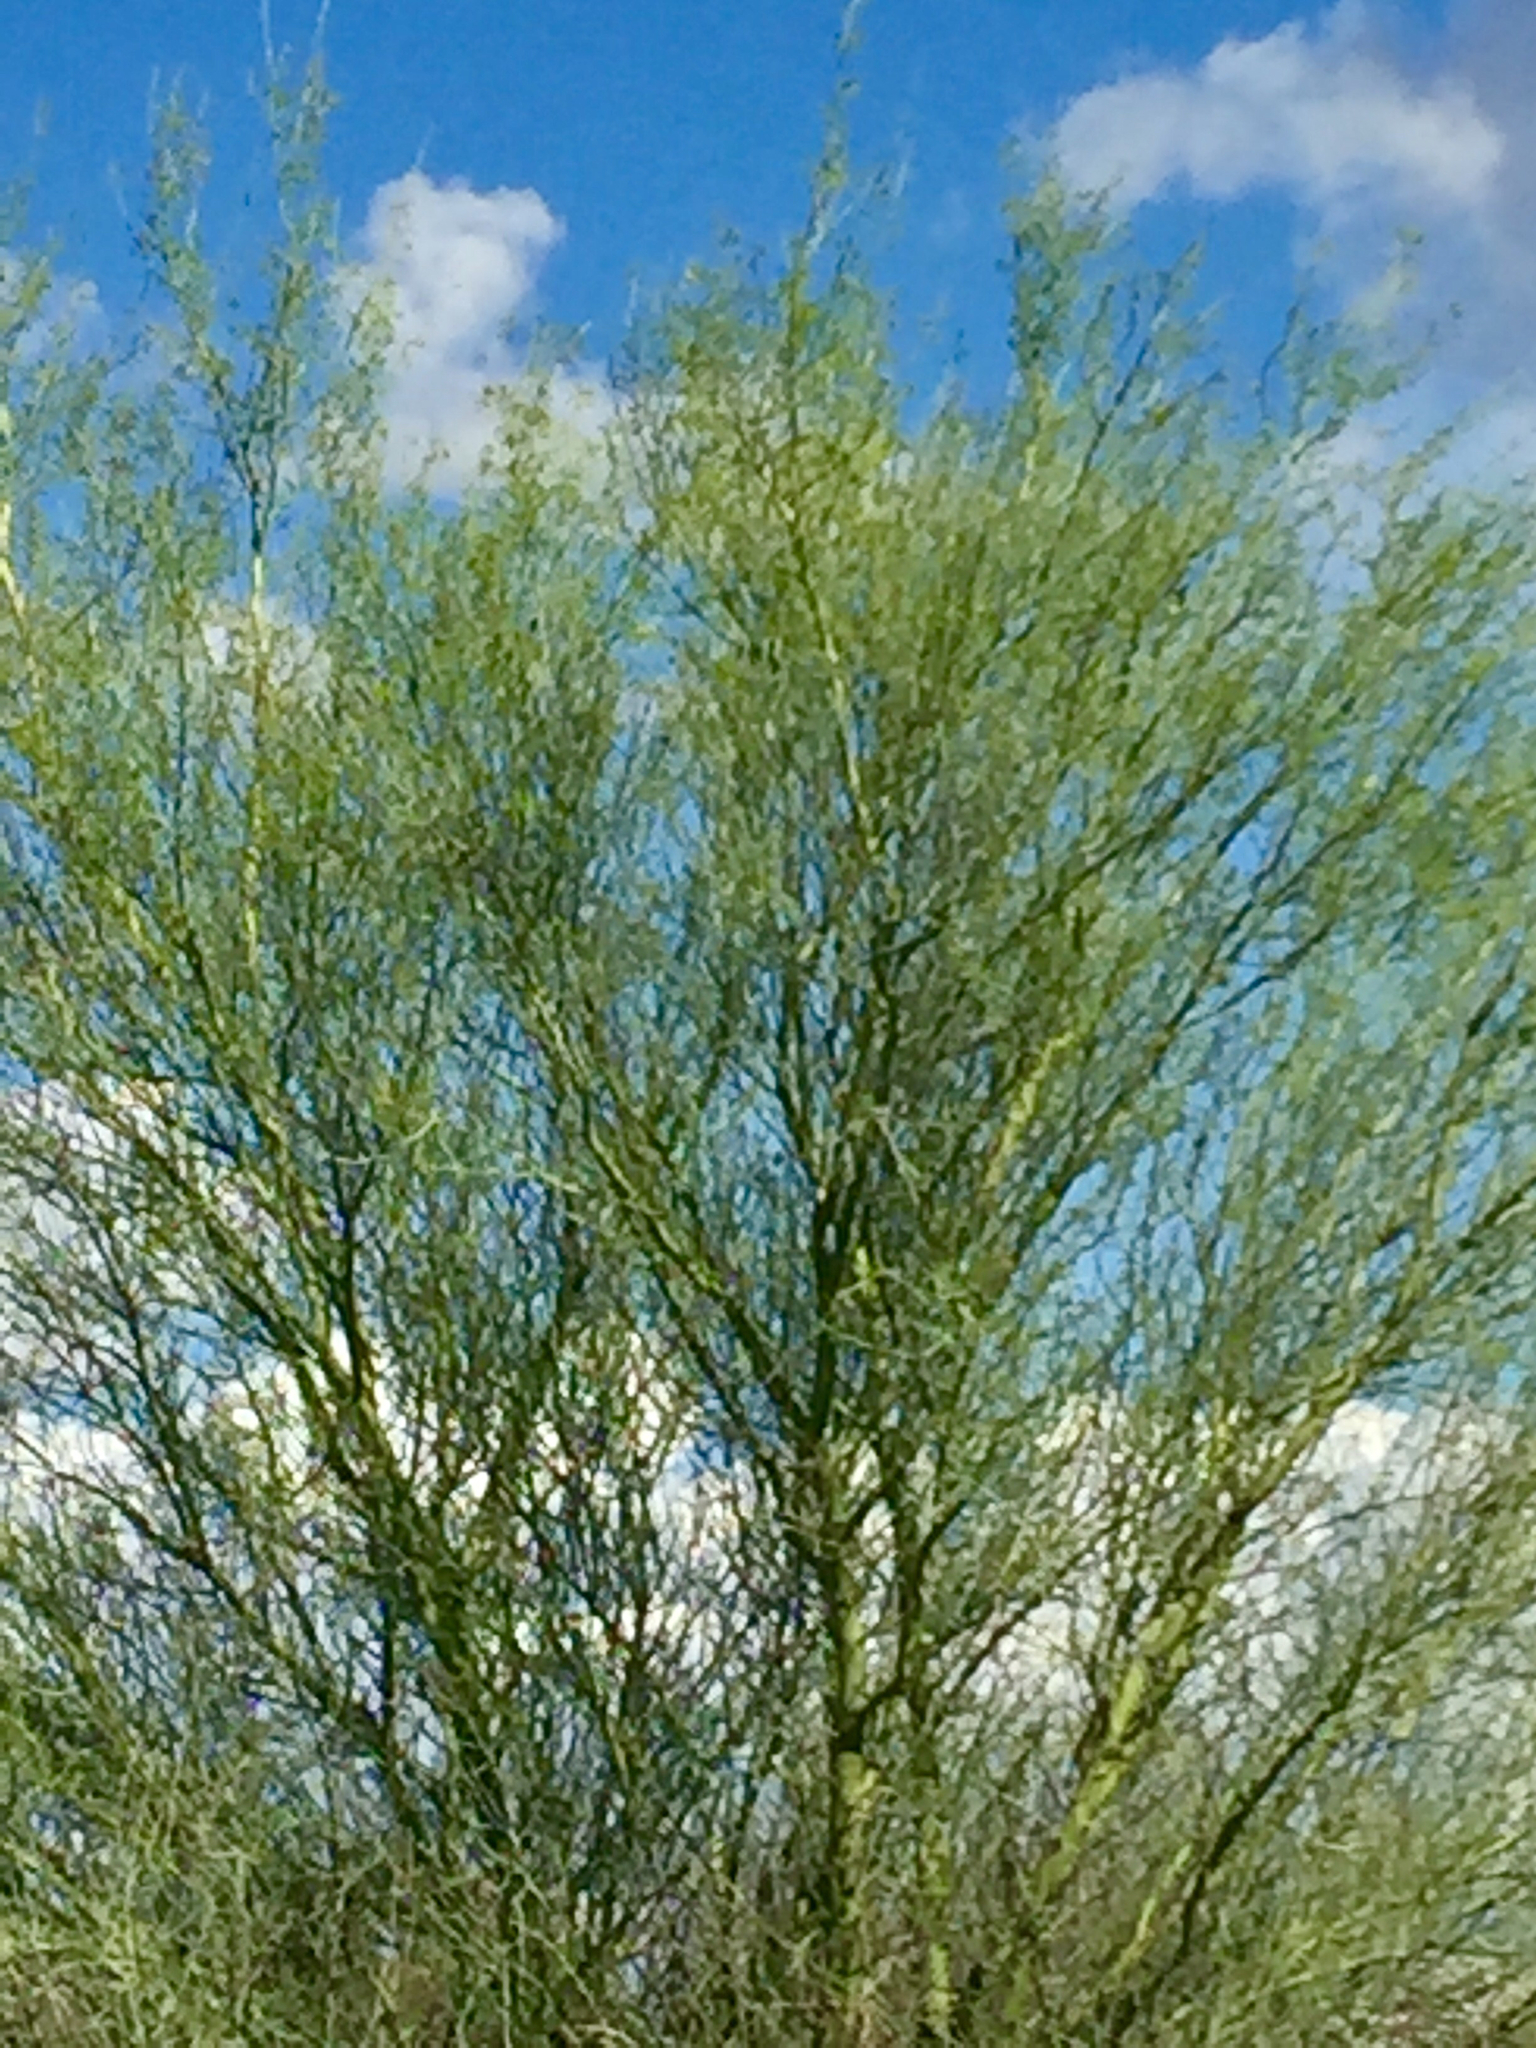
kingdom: Plantae
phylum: Tracheophyta
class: Magnoliopsida
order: Fabales
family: Fabaceae
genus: Parkinsonia
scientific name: Parkinsonia microphylla
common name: Yellow paloverde
